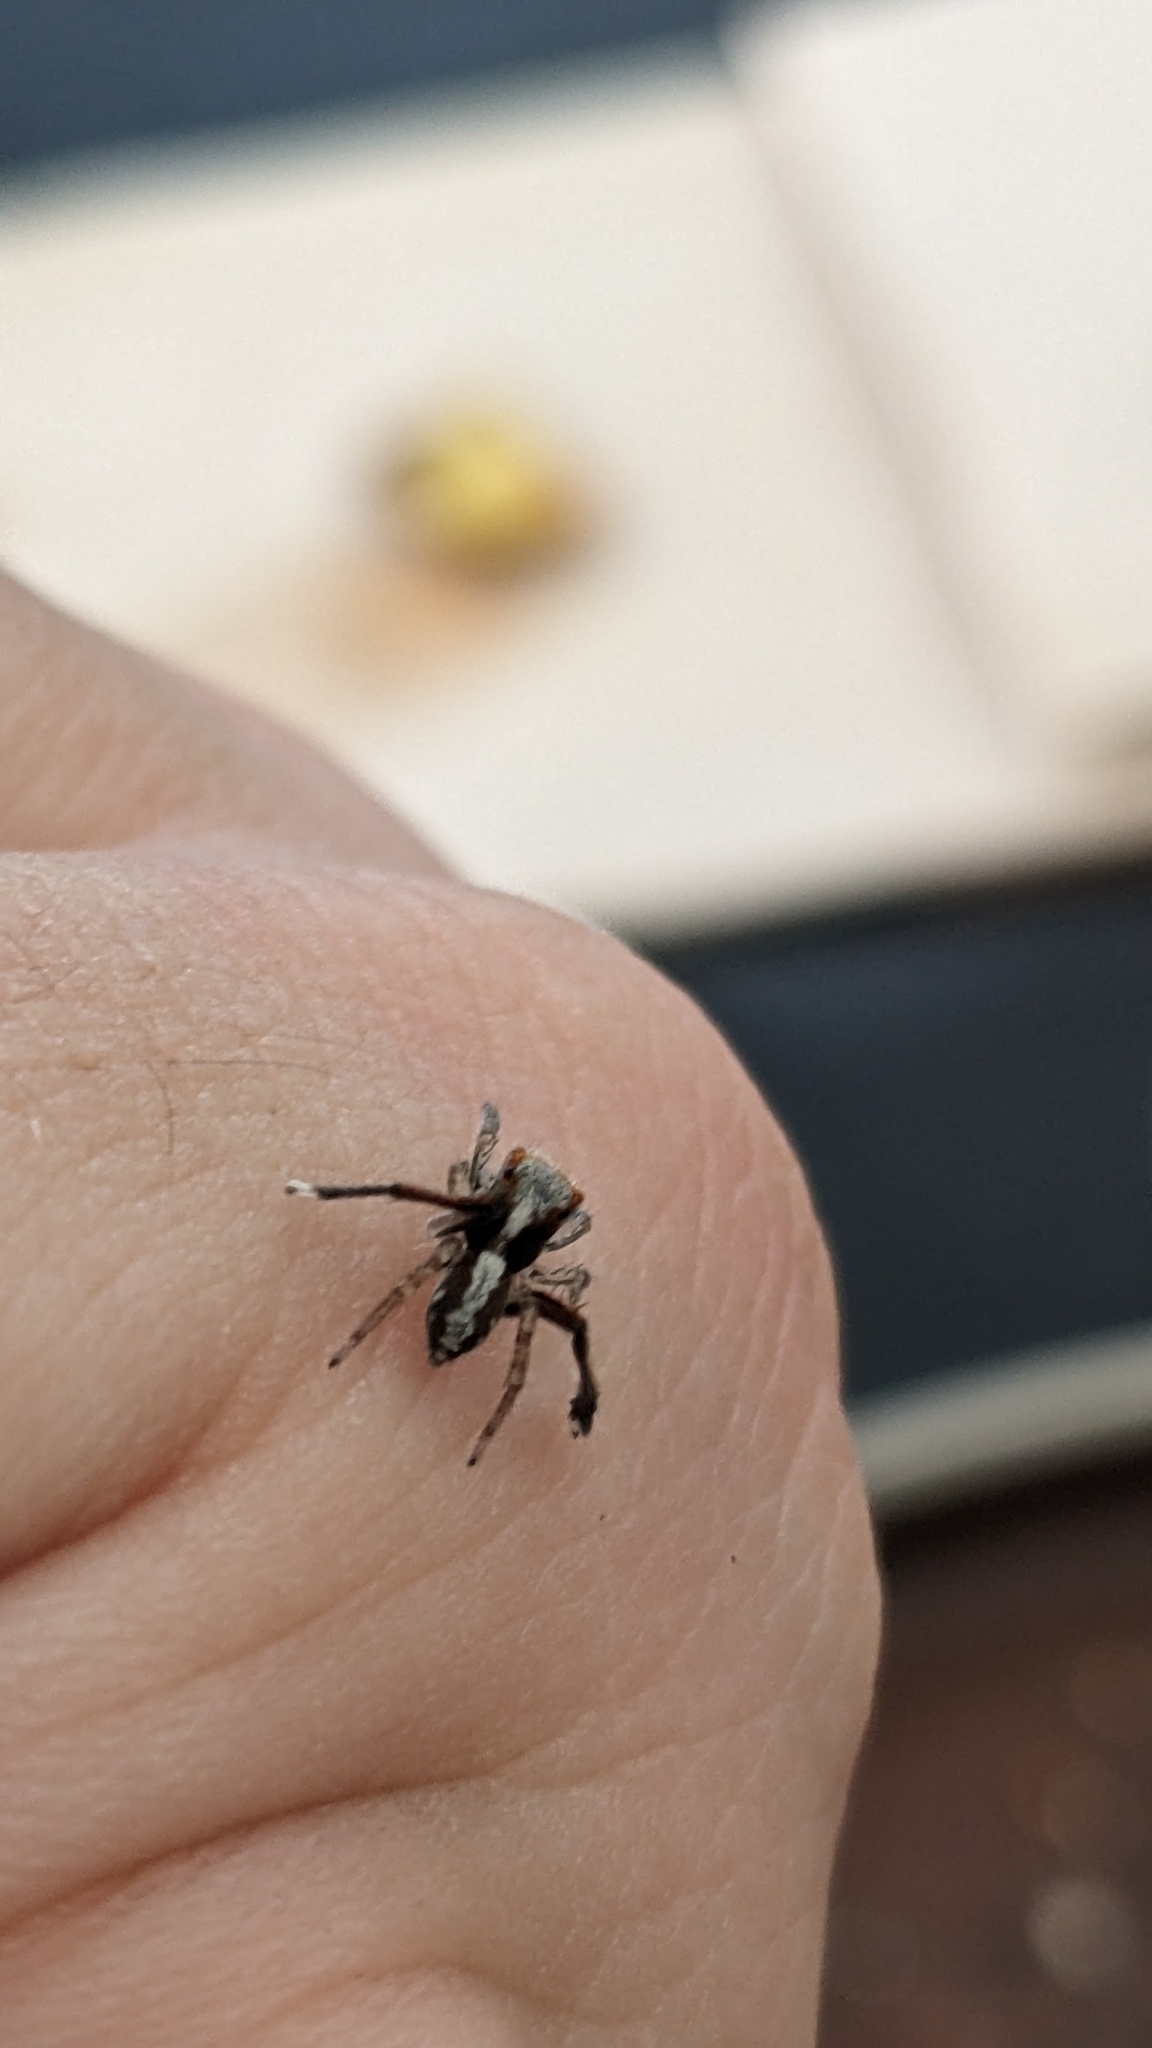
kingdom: Animalia
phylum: Arthropoda
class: Arachnida
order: Araneae
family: Salticidae
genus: Saitis
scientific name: Saitis barbipes
